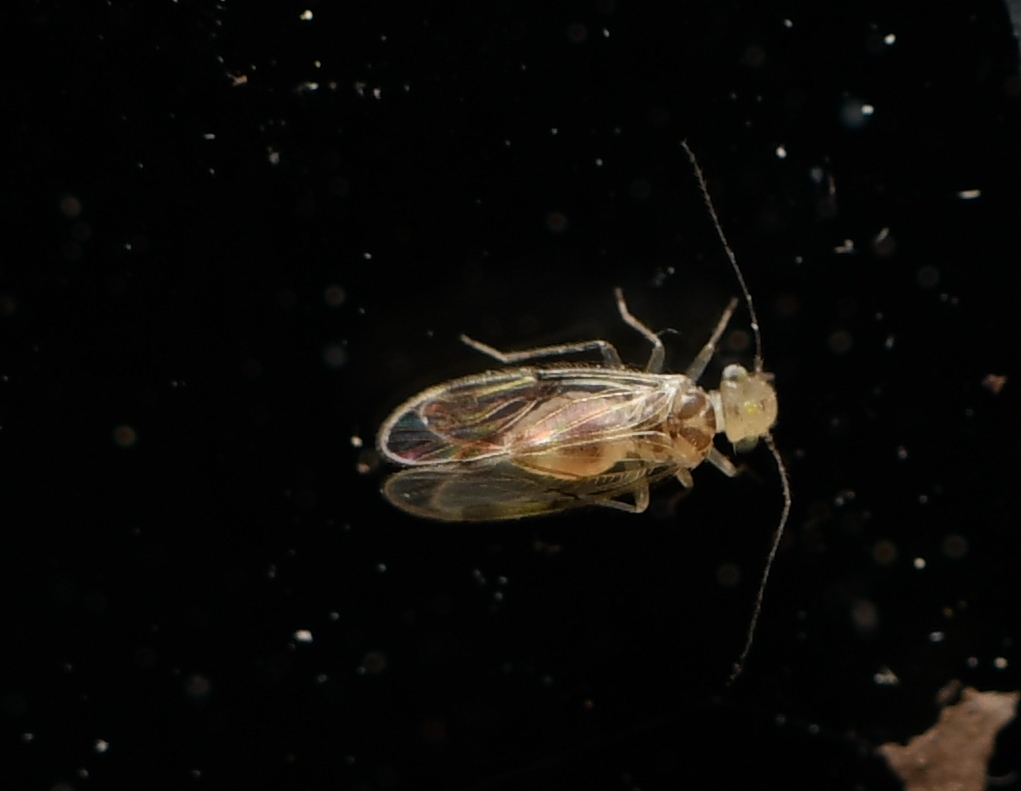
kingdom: Animalia
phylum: Arthropoda
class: Insecta
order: Psocodea
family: Pseudocaeciliidae
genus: Pseudocaecilius
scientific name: Pseudocaecilius citricola
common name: Bark lice
